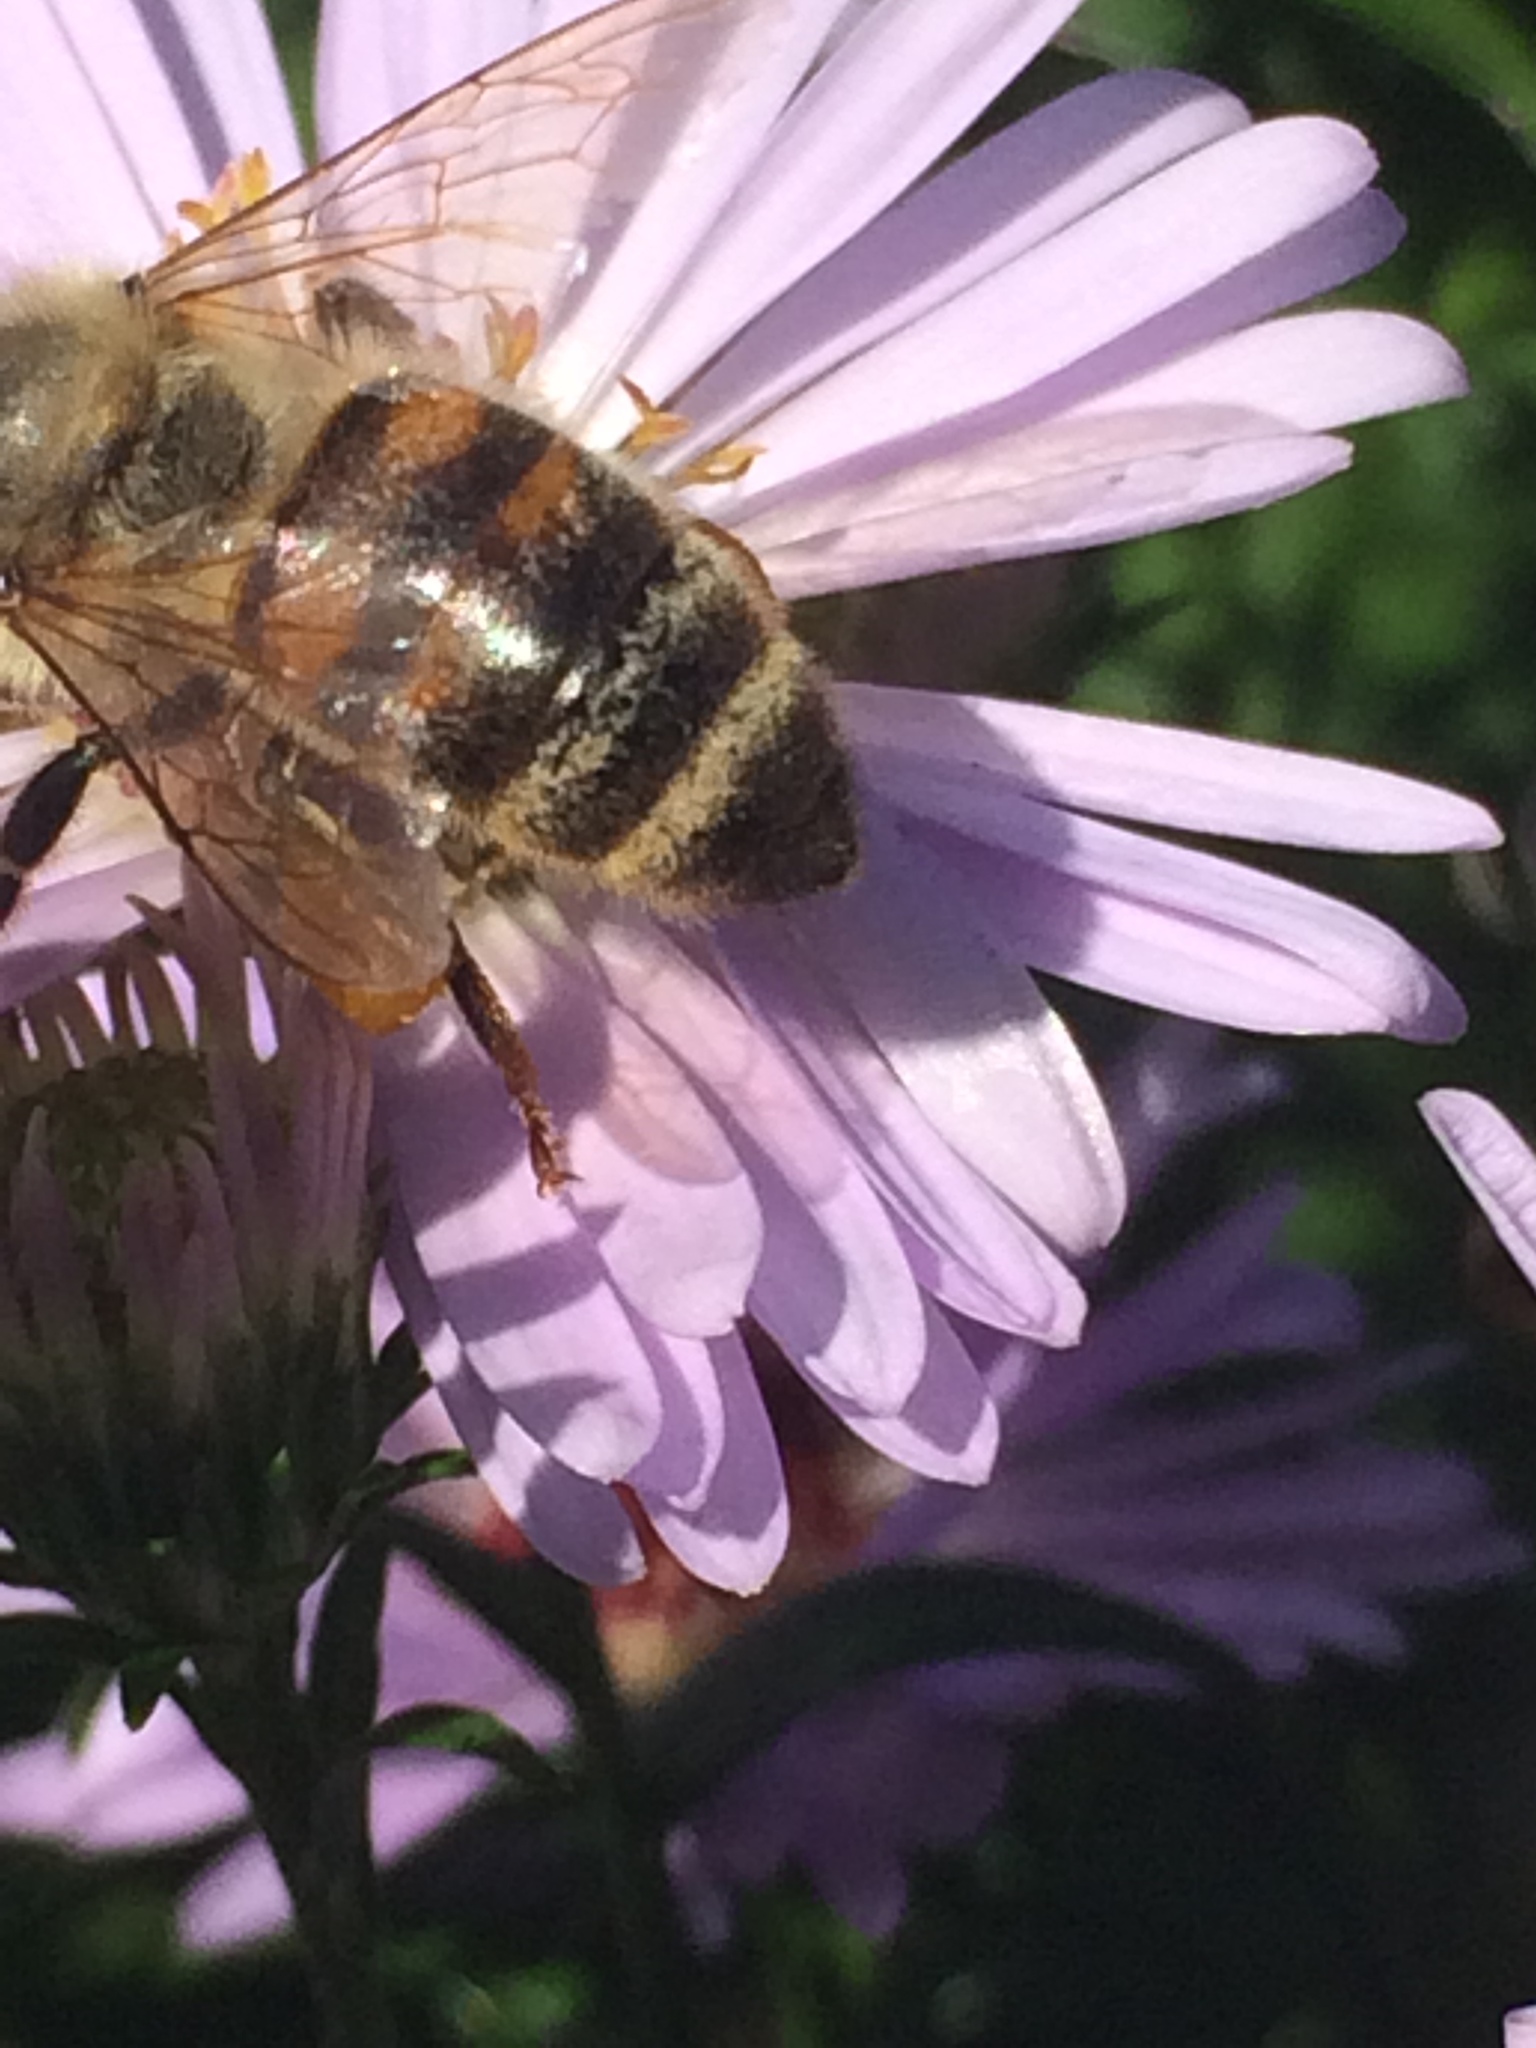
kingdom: Animalia
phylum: Arthropoda
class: Insecta
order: Hymenoptera
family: Apidae
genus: Apis
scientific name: Apis mellifera
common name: Honey bee
